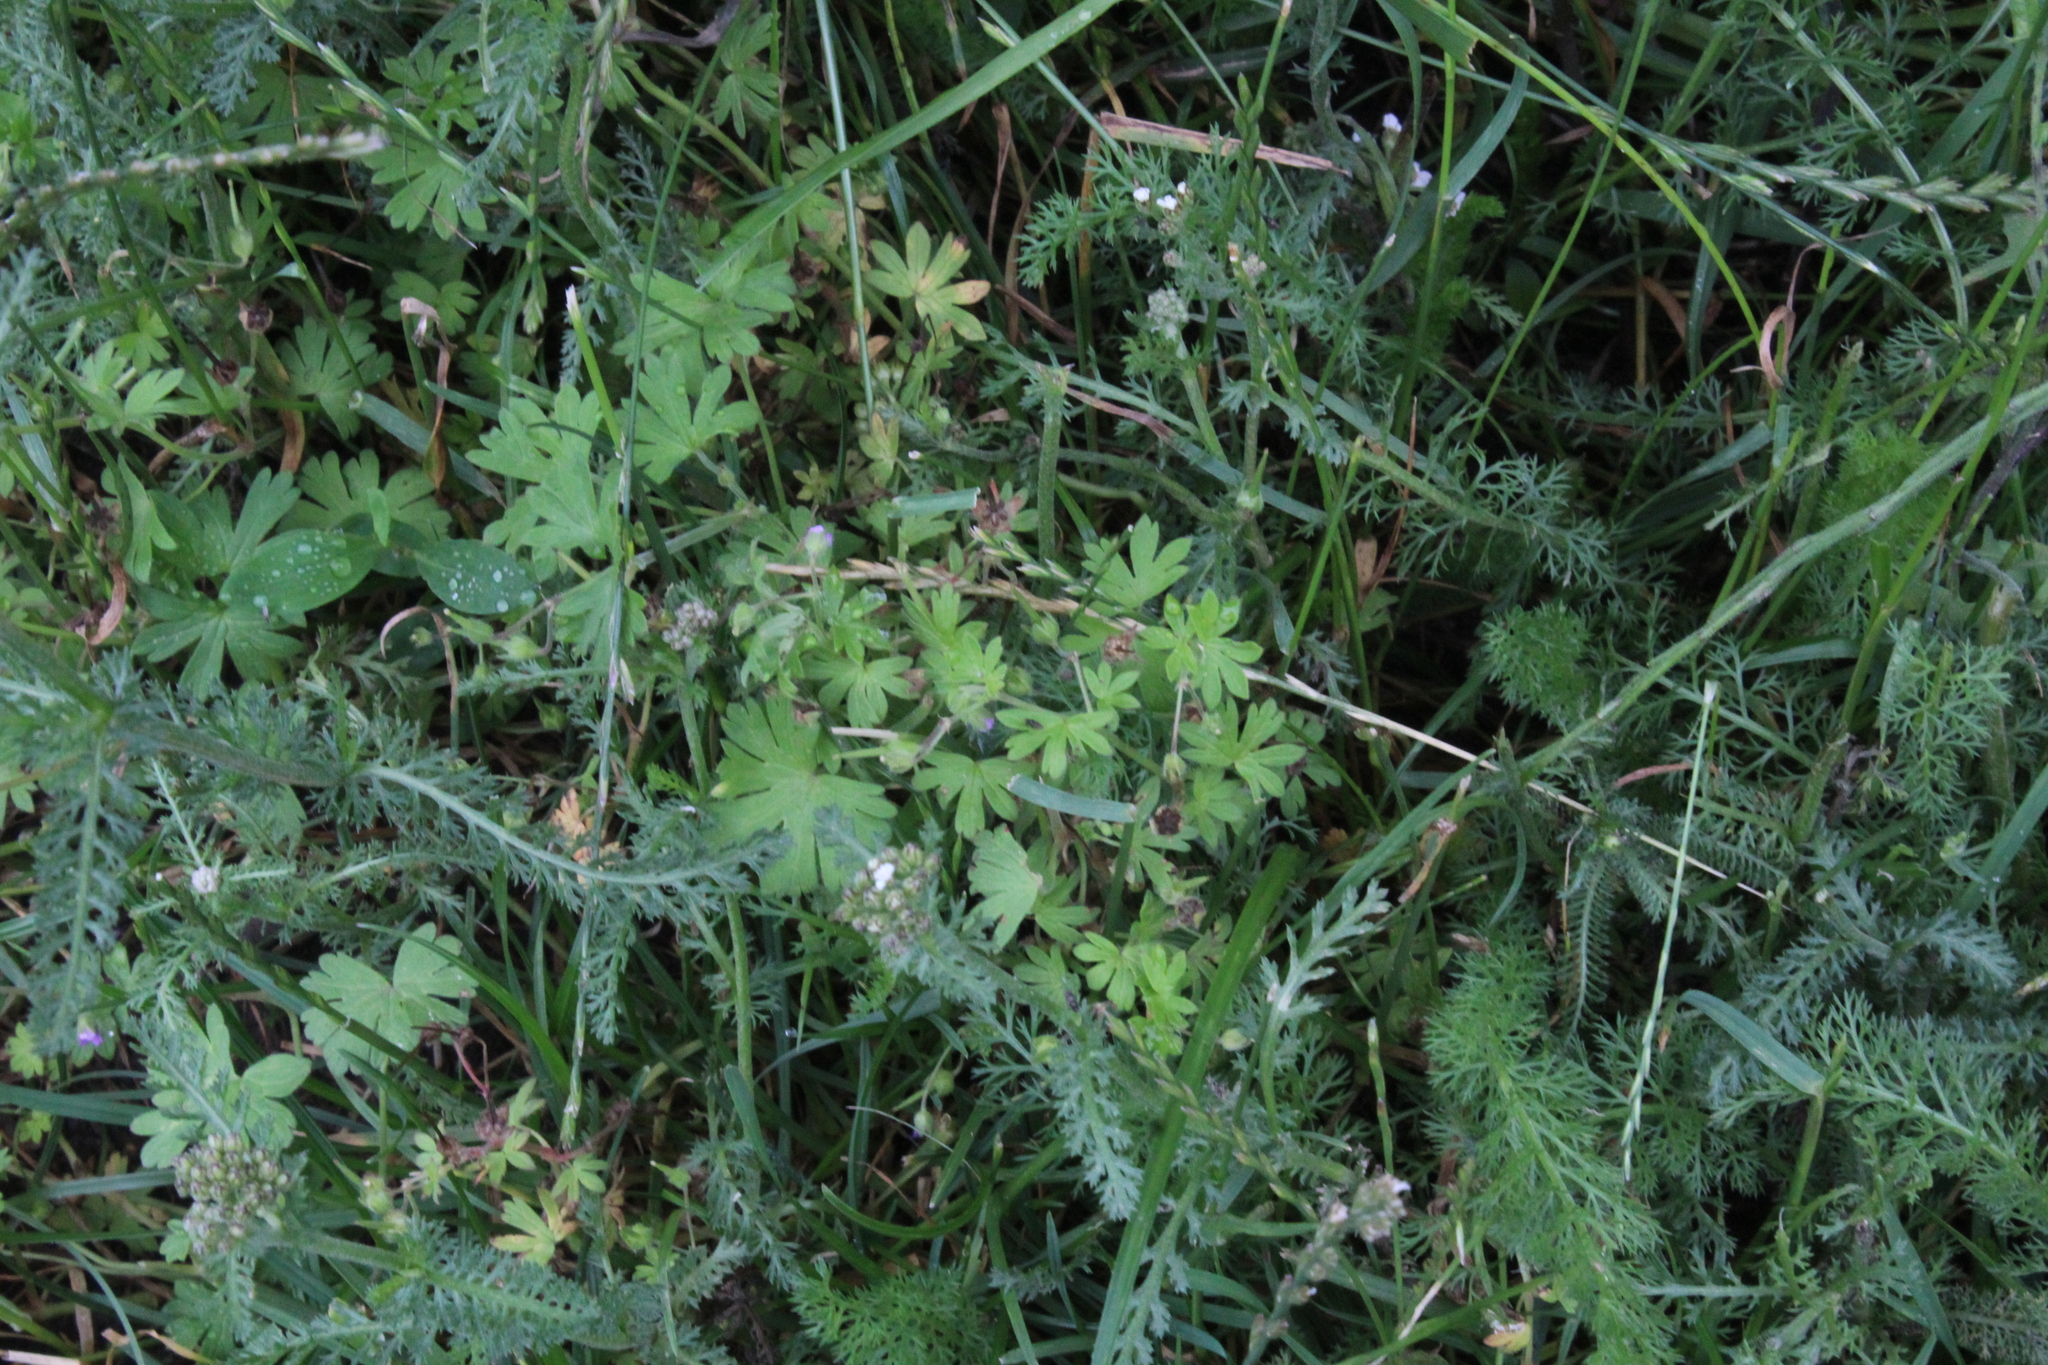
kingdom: Plantae
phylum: Tracheophyta
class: Magnoliopsida
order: Geraniales
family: Geraniaceae
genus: Geranium
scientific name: Geranium pusillum
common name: Small geranium
